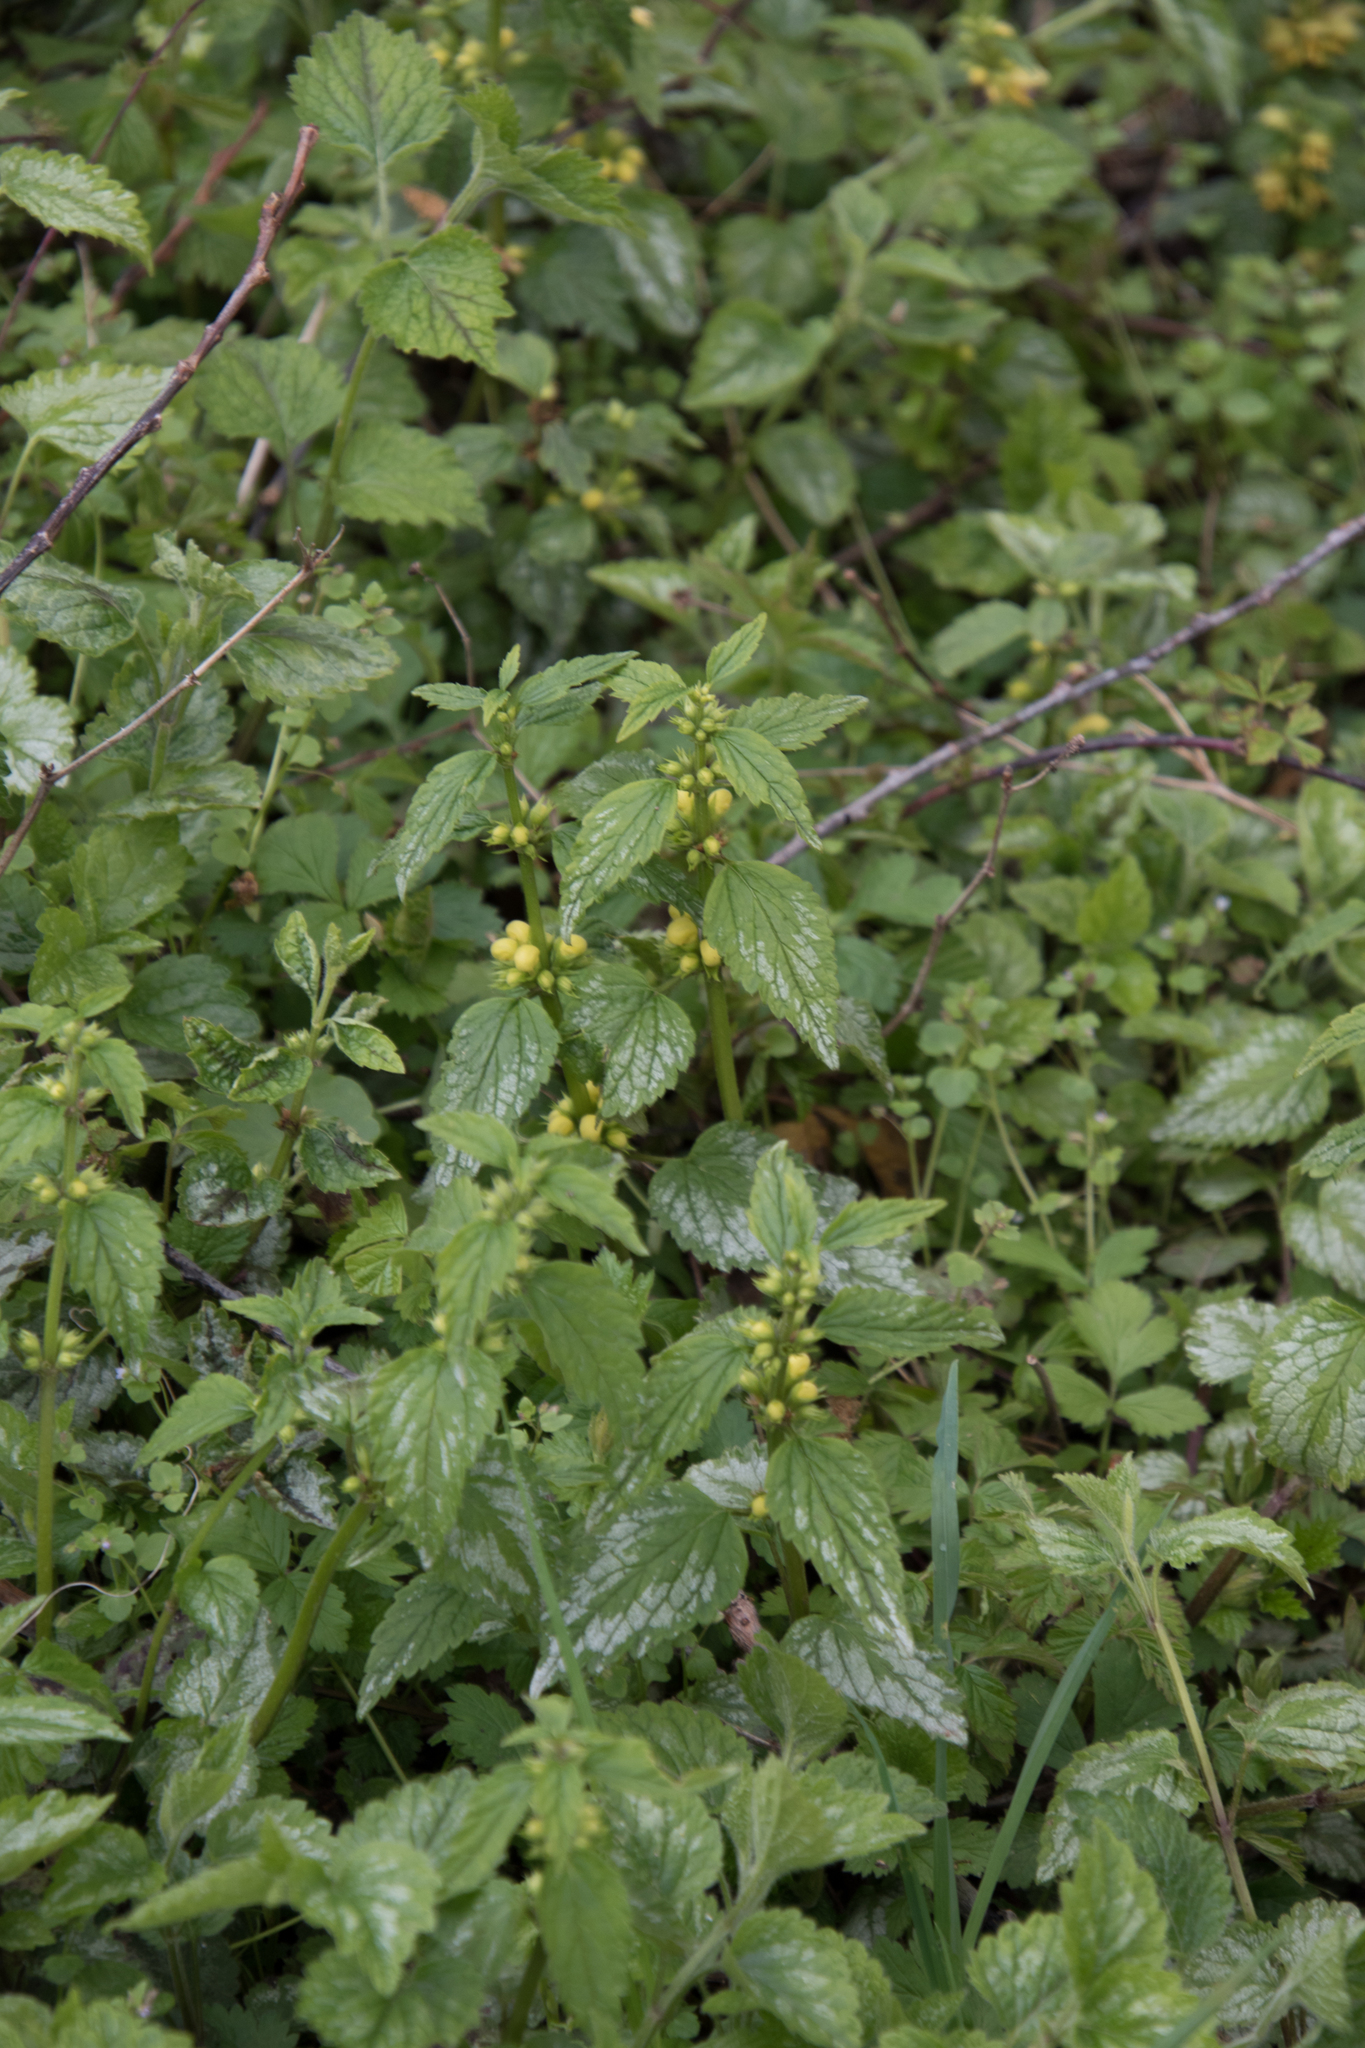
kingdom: Plantae
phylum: Tracheophyta
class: Magnoliopsida
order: Lamiales
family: Lamiaceae
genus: Lamium
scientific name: Lamium galeobdolon
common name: Yellow archangel
